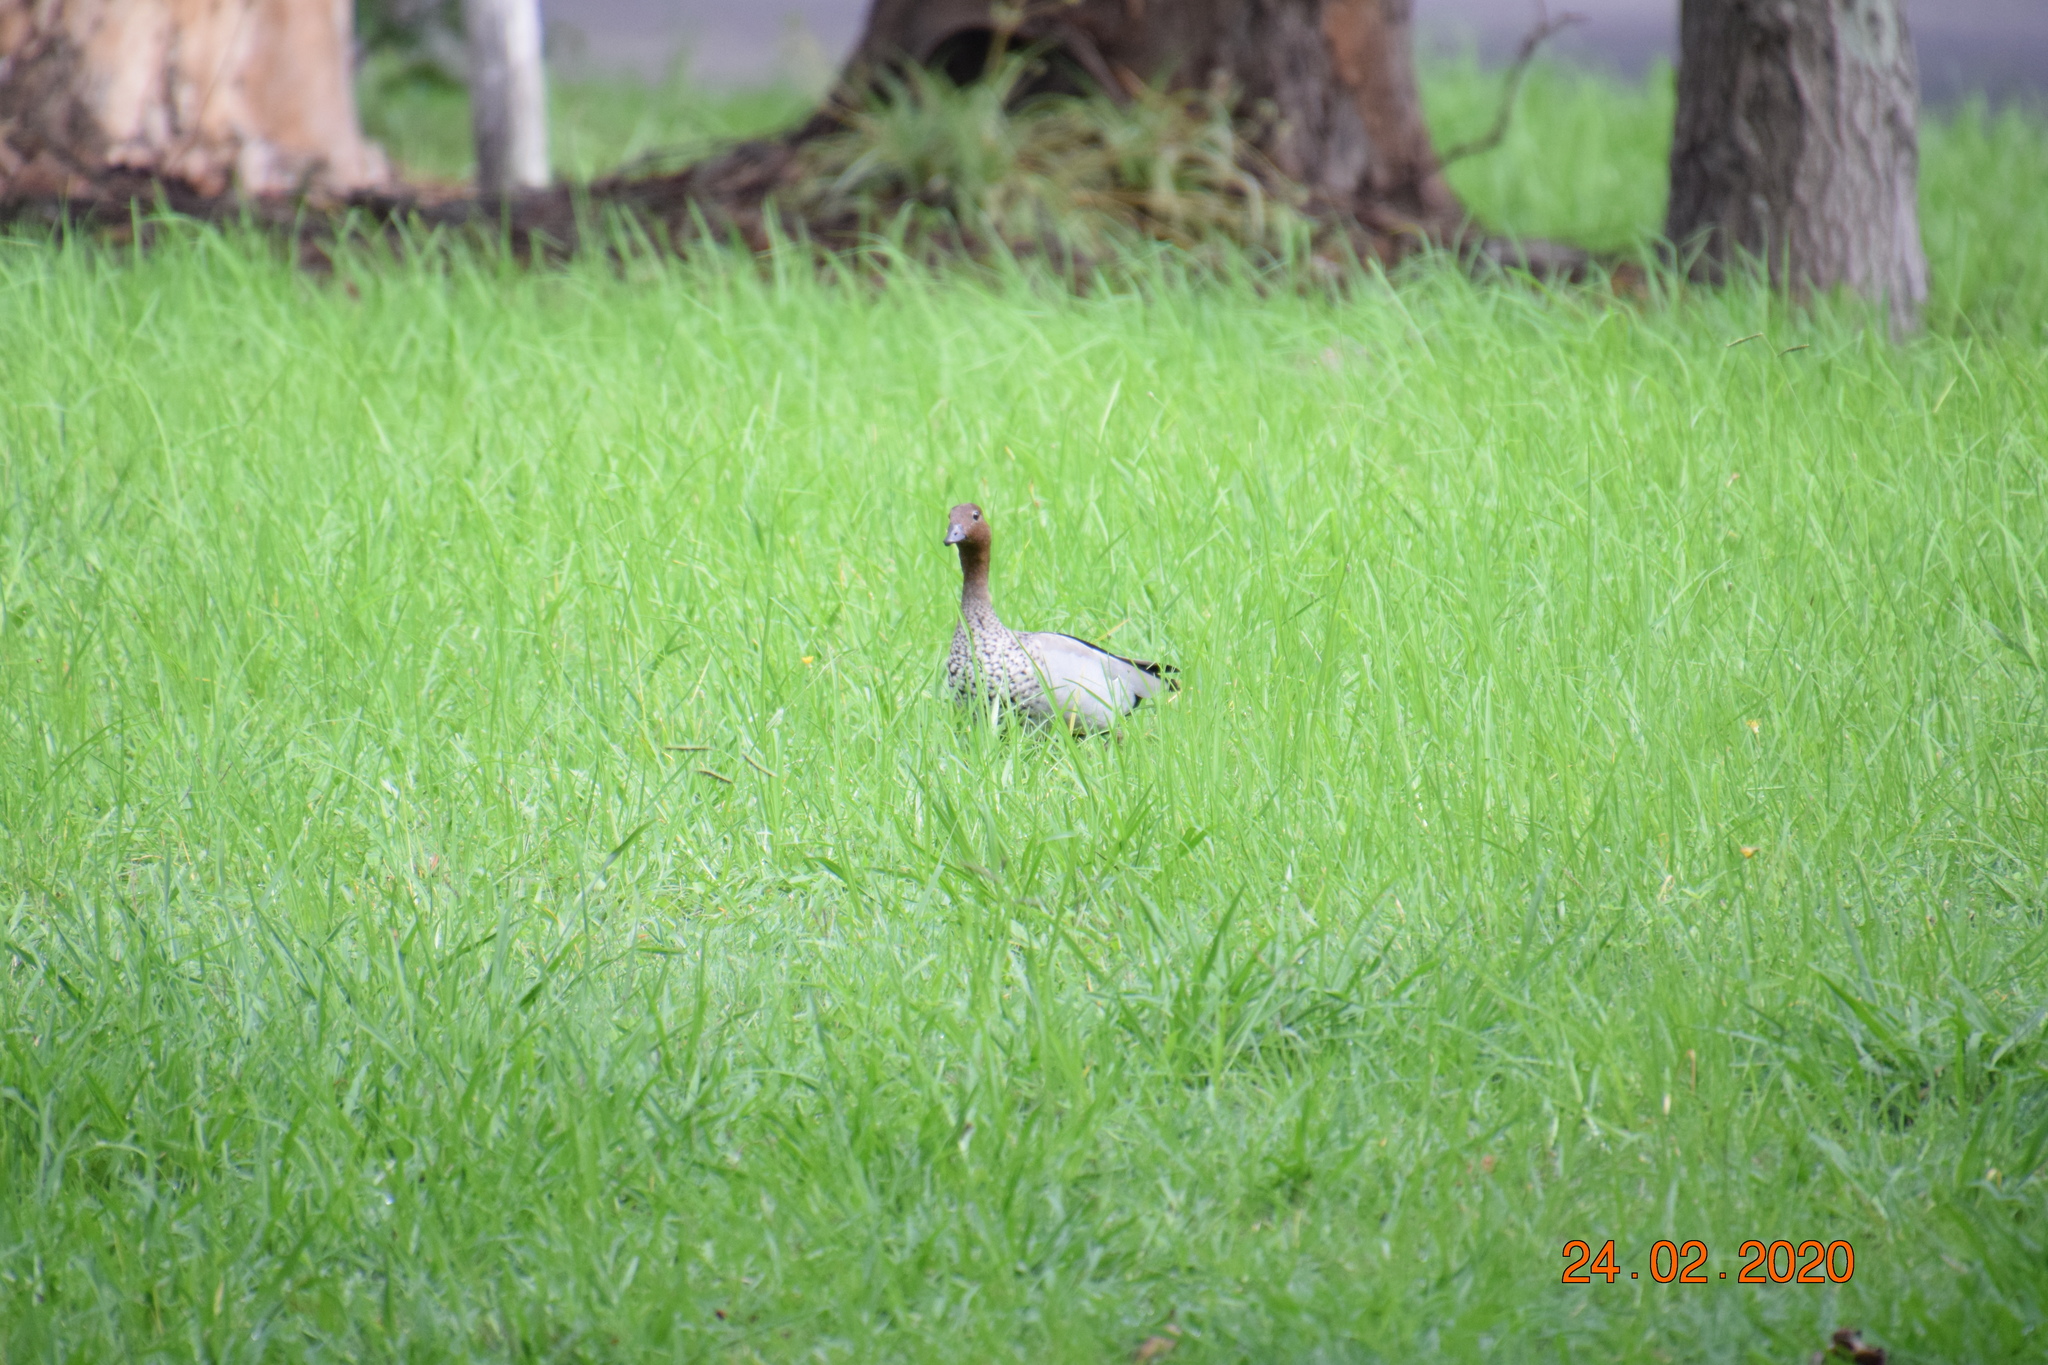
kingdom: Animalia
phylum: Chordata
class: Aves
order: Anseriformes
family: Anatidae
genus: Chenonetta
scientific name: Chenonetta jubata
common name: Maned duck
